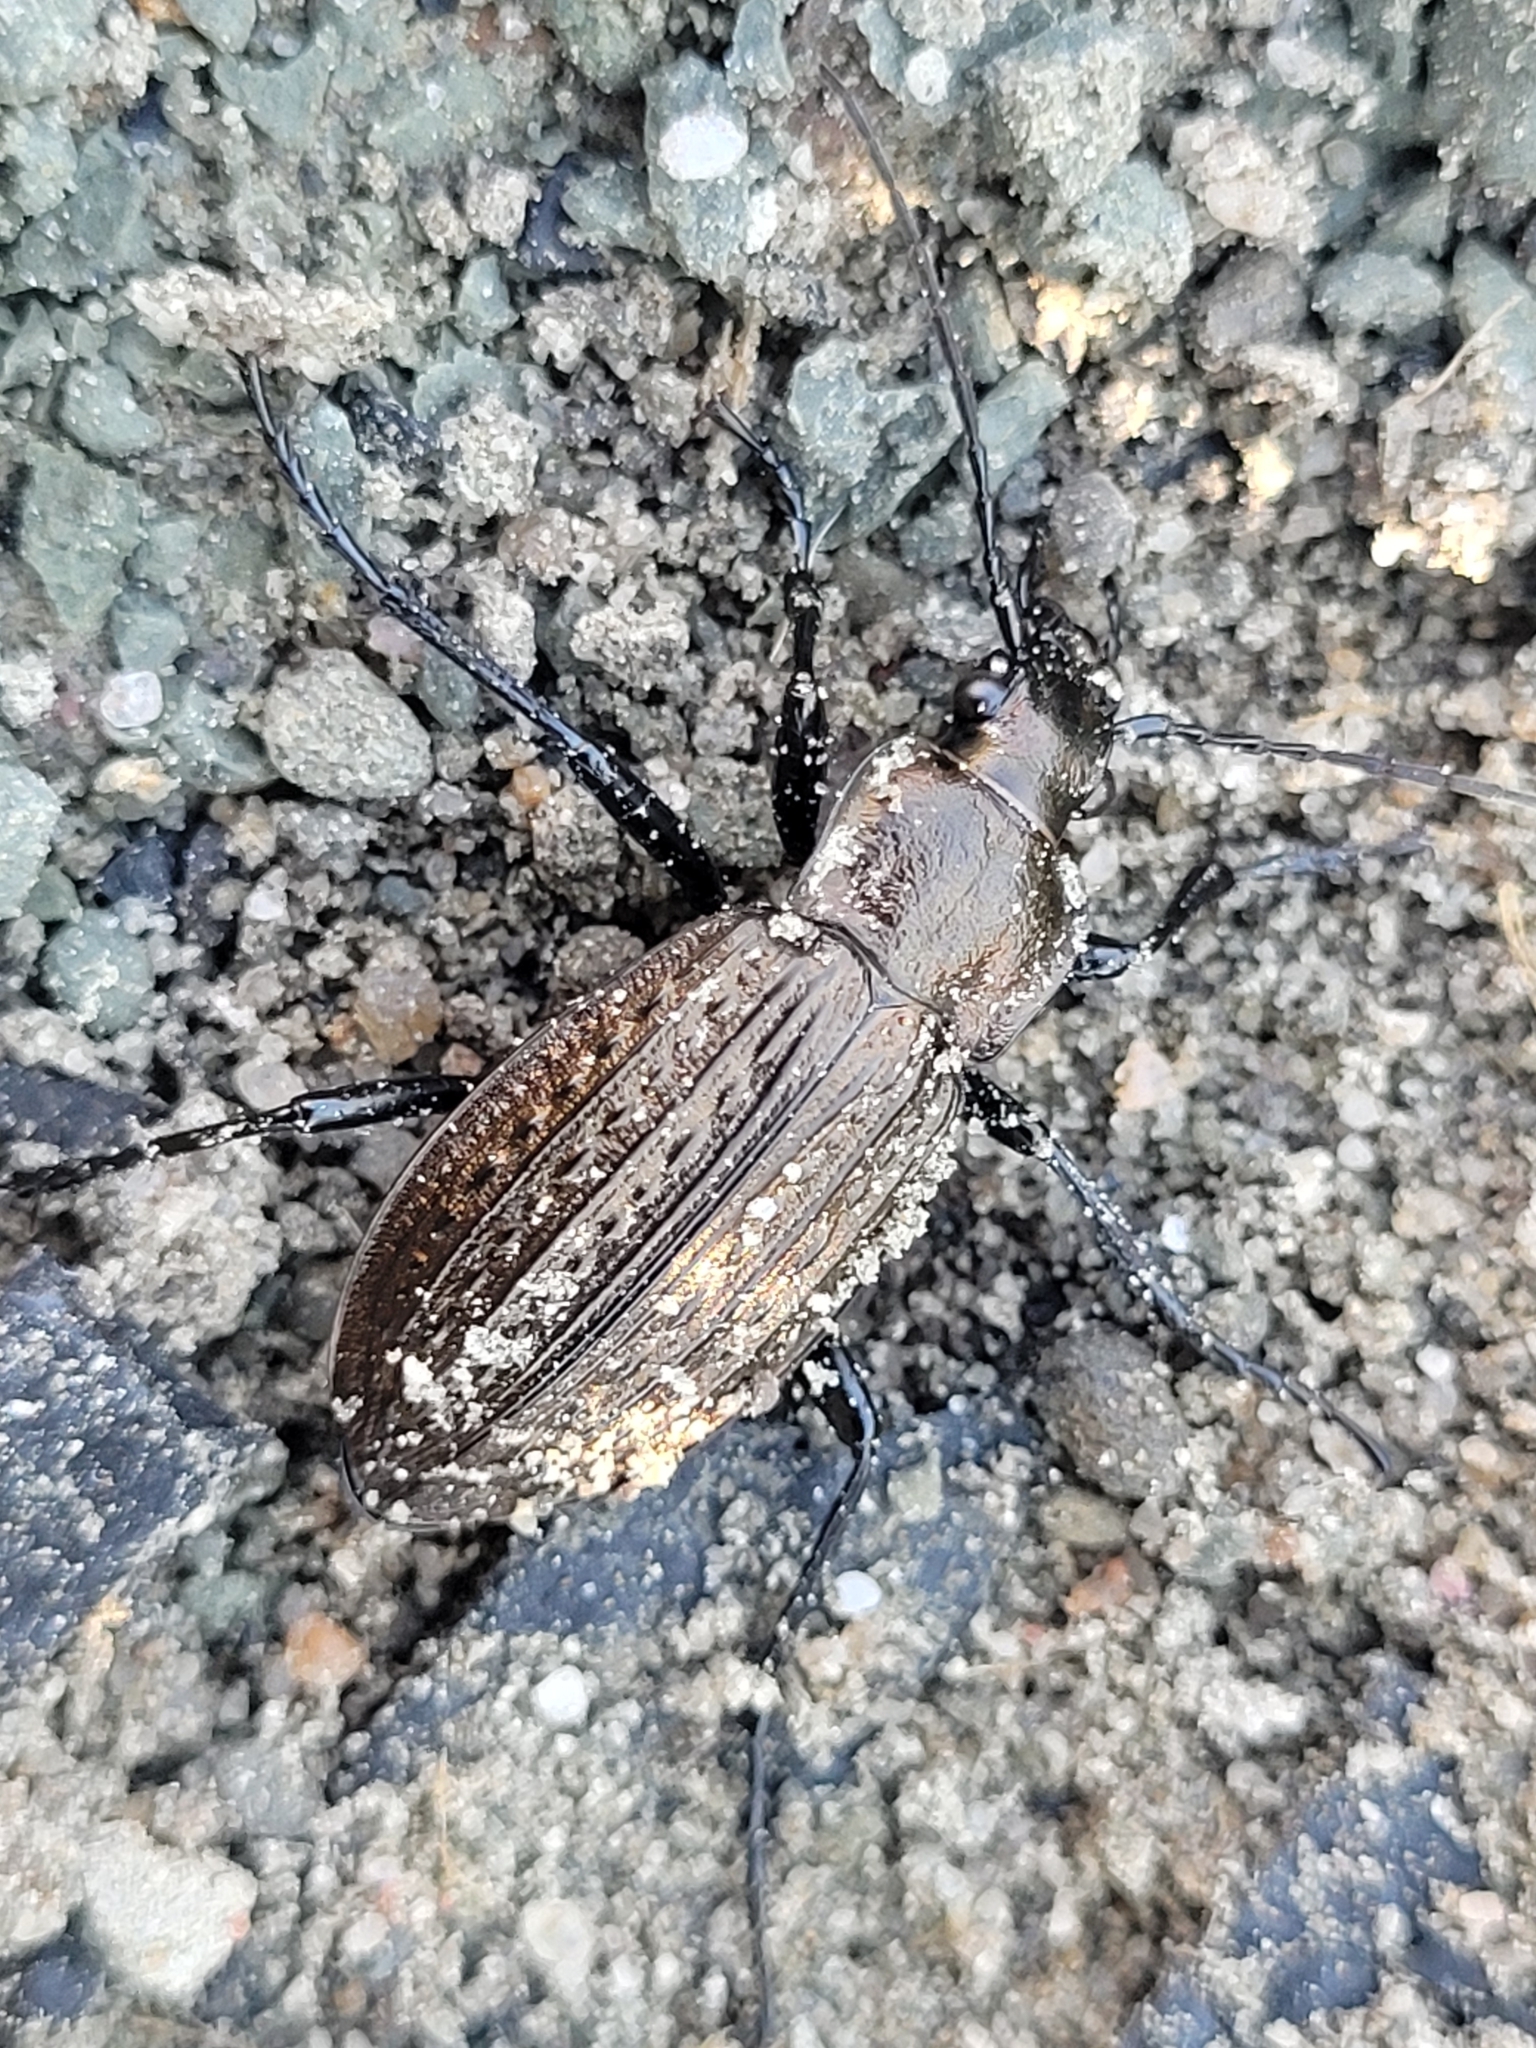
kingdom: Animalia
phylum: Arthropoda
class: Insecta
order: Coleoptera
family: Carabidae
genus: Carabus
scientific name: Carabus granulatus
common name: Granulate ground beetle
